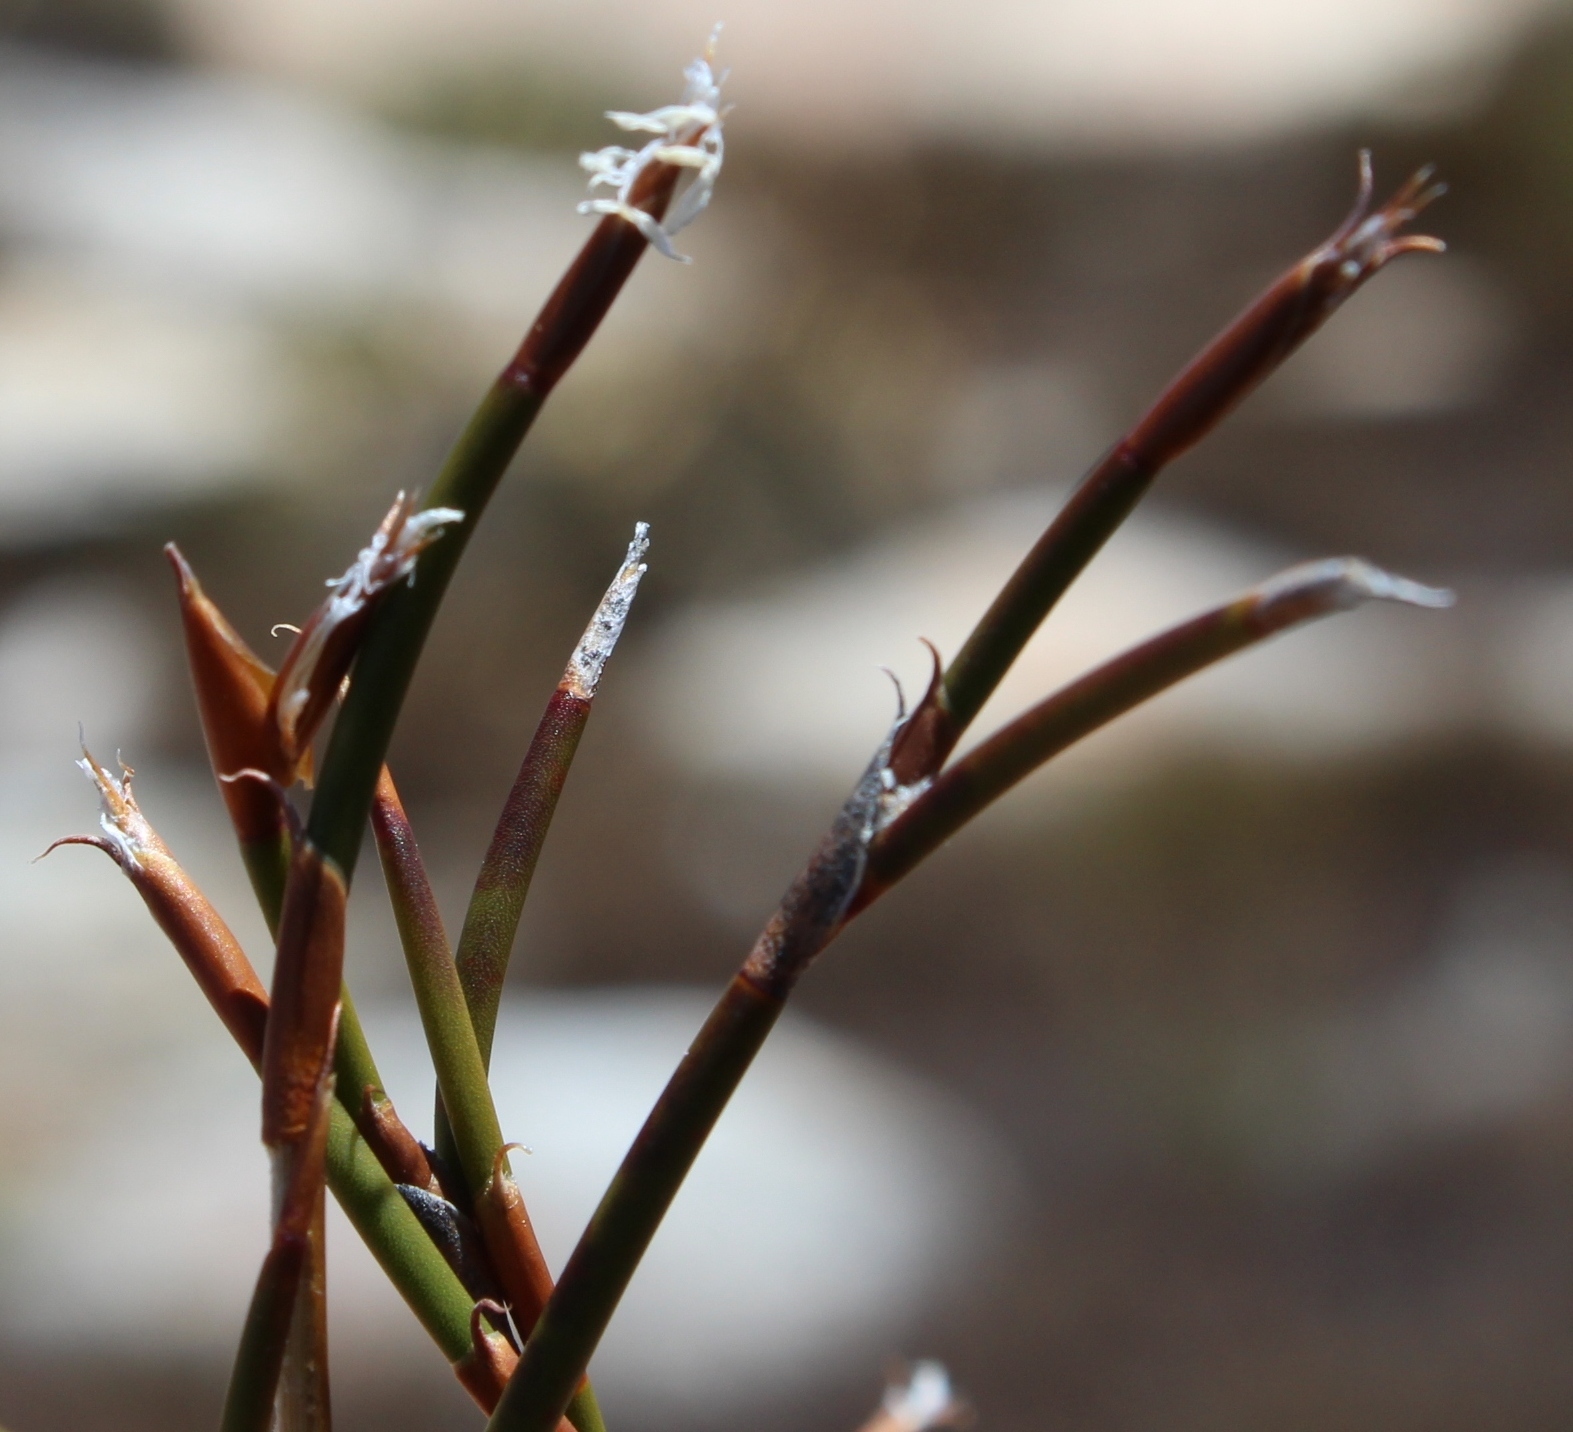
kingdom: Plantae
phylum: Tracheophyta
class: Liliopsida
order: Poales
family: Restionaceae
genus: Restio
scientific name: Restio nanus
